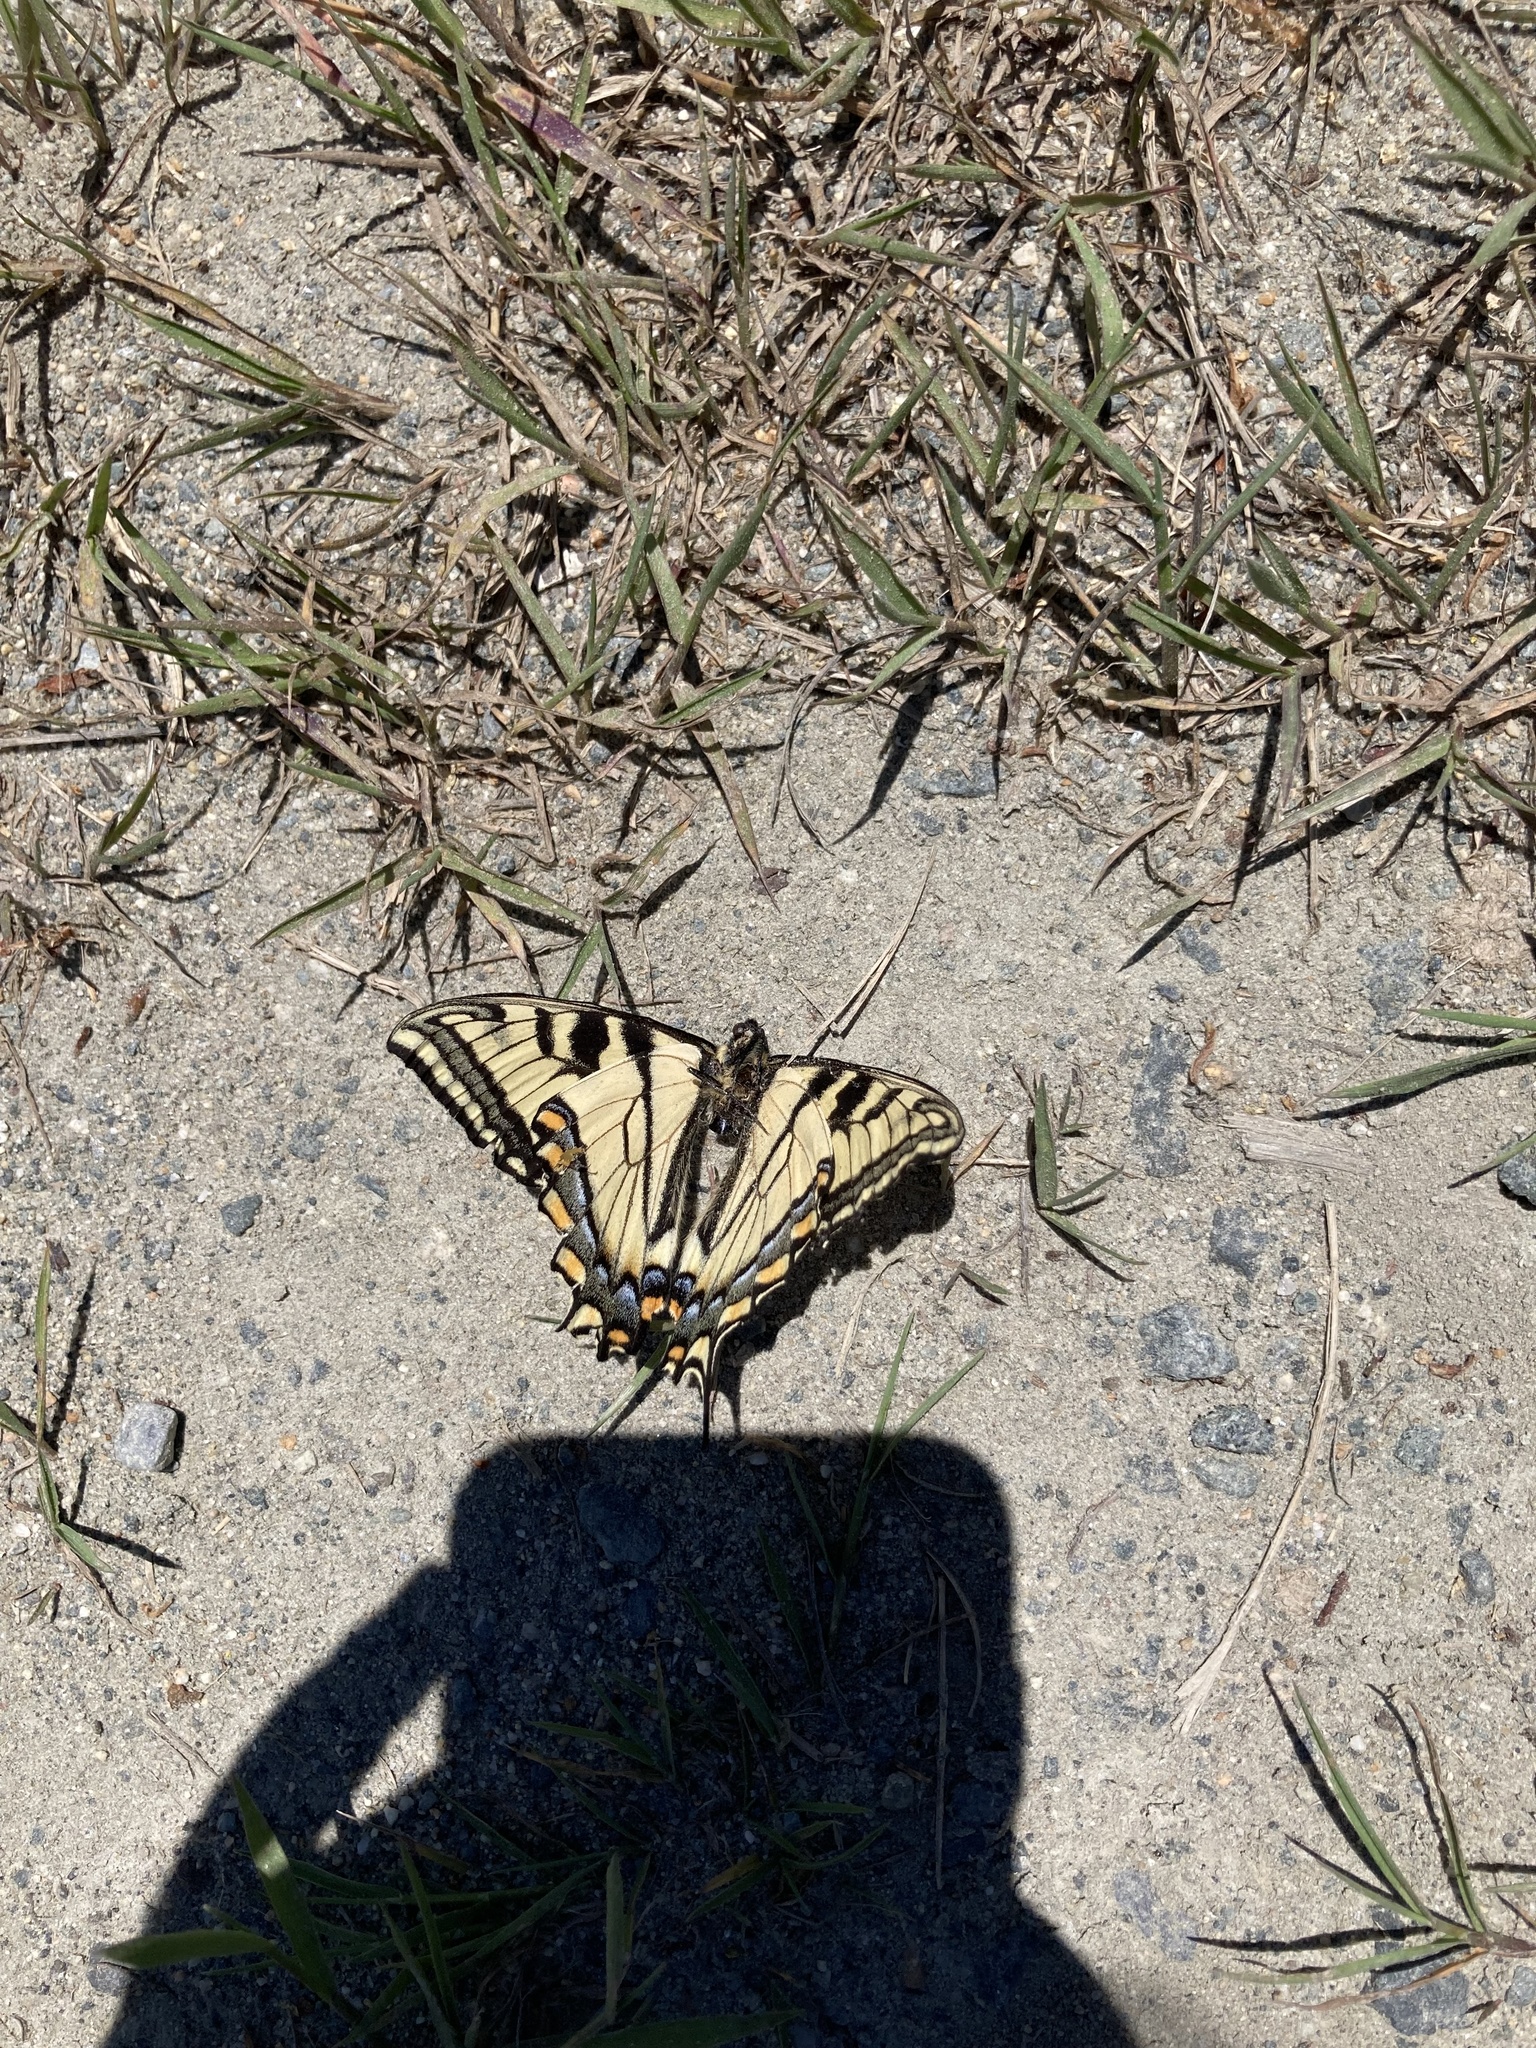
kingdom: Animalia
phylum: Arthropoda
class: Insecta
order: Lepidoptera
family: Papilionidae
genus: Papilio
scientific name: Papilio canadensis
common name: Canadian tiger swallowtail
